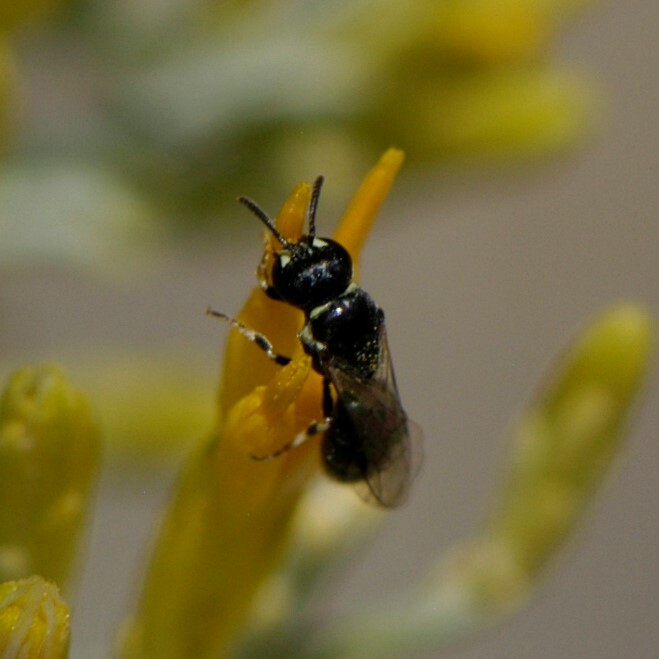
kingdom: Animalia
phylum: Arthropoda
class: Insecta
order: Hymenoptera
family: Colletidae
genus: Hylaeus
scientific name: Hylaeus
